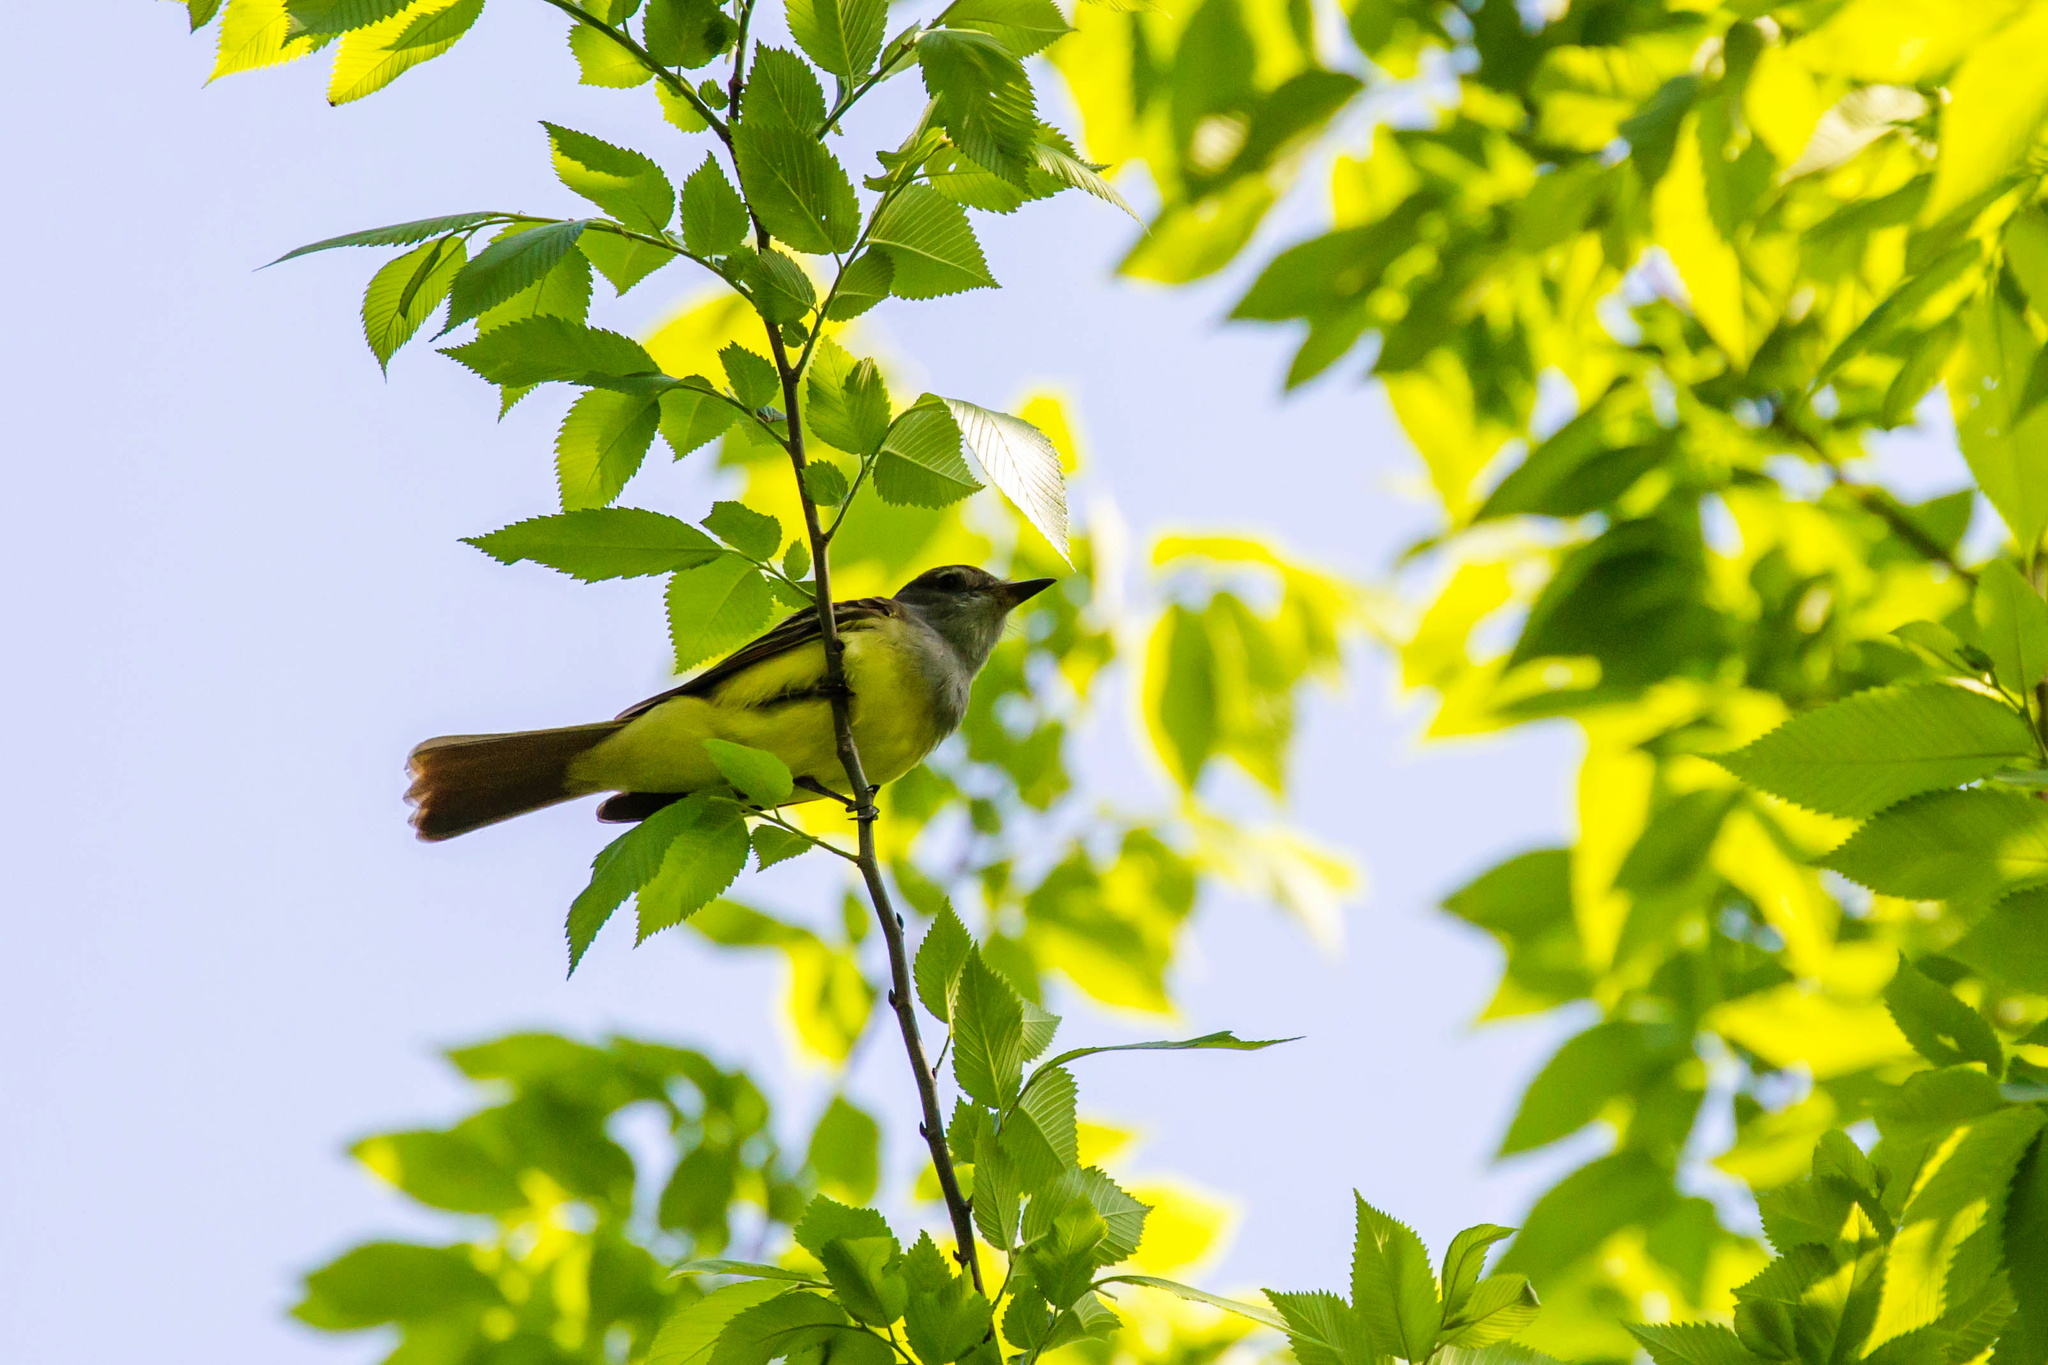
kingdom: Animalia
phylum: Chordata
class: Aves
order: Passeriformes
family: Tyrannidae
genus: Myiarchus
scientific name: Myiarchus crinitus
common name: Great crested flycatcher
